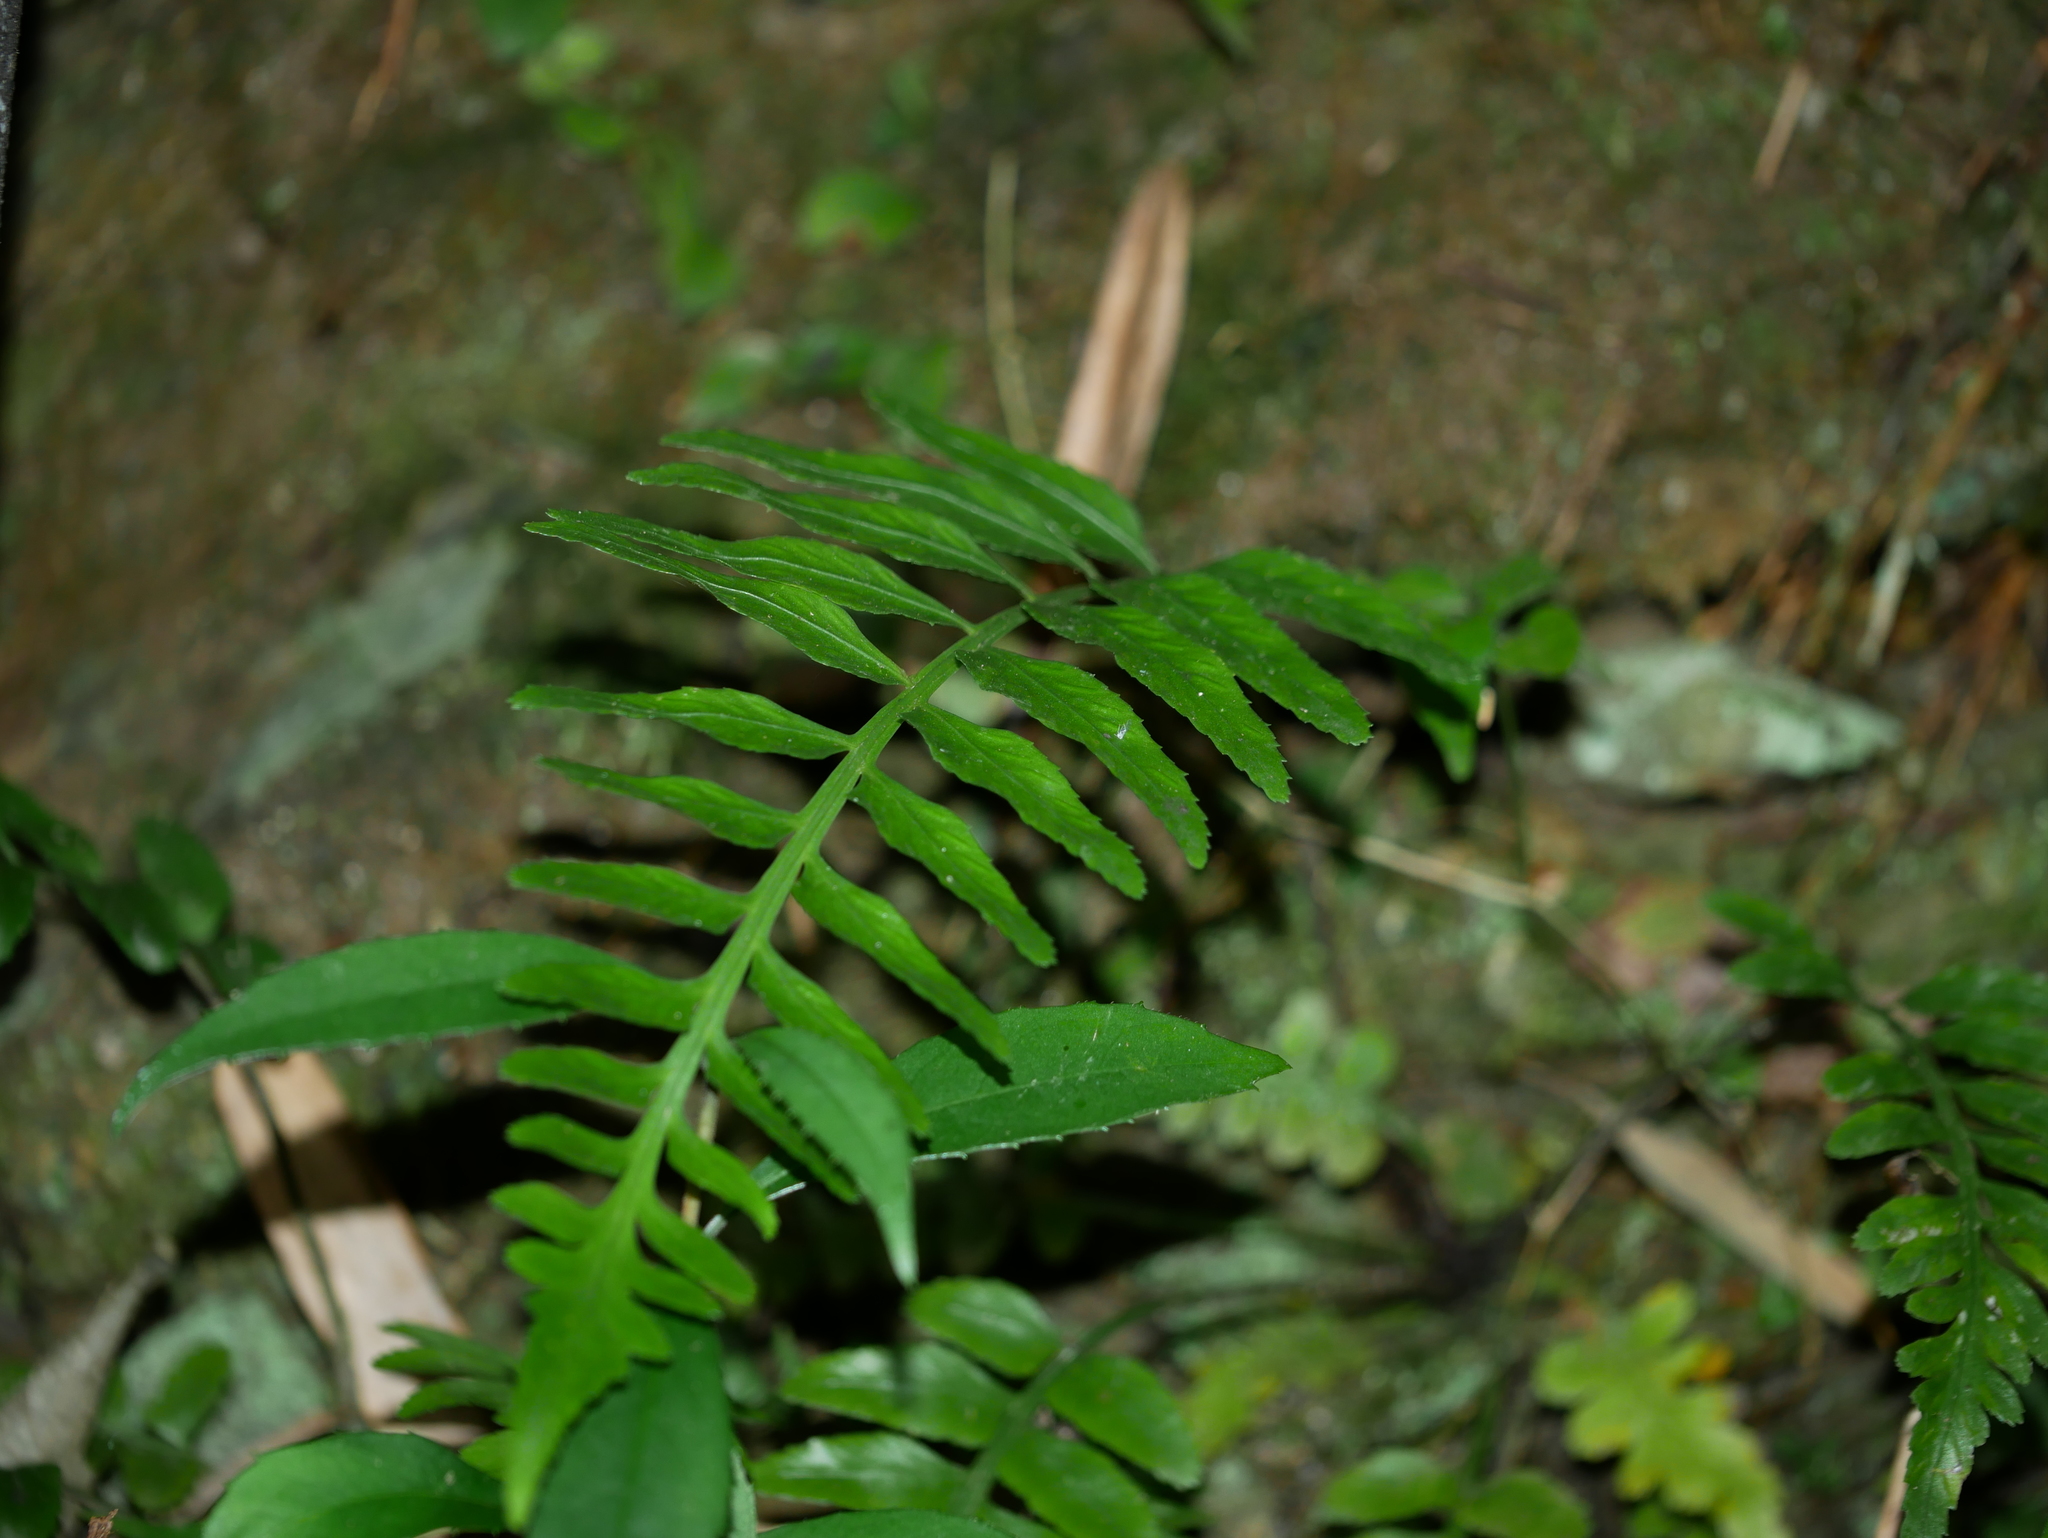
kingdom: Plantae
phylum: Tracheophyta
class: Polypodiopsida
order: Polypodiales
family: Aspleniaceae
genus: Asplenium
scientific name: Asplenium wrightii
